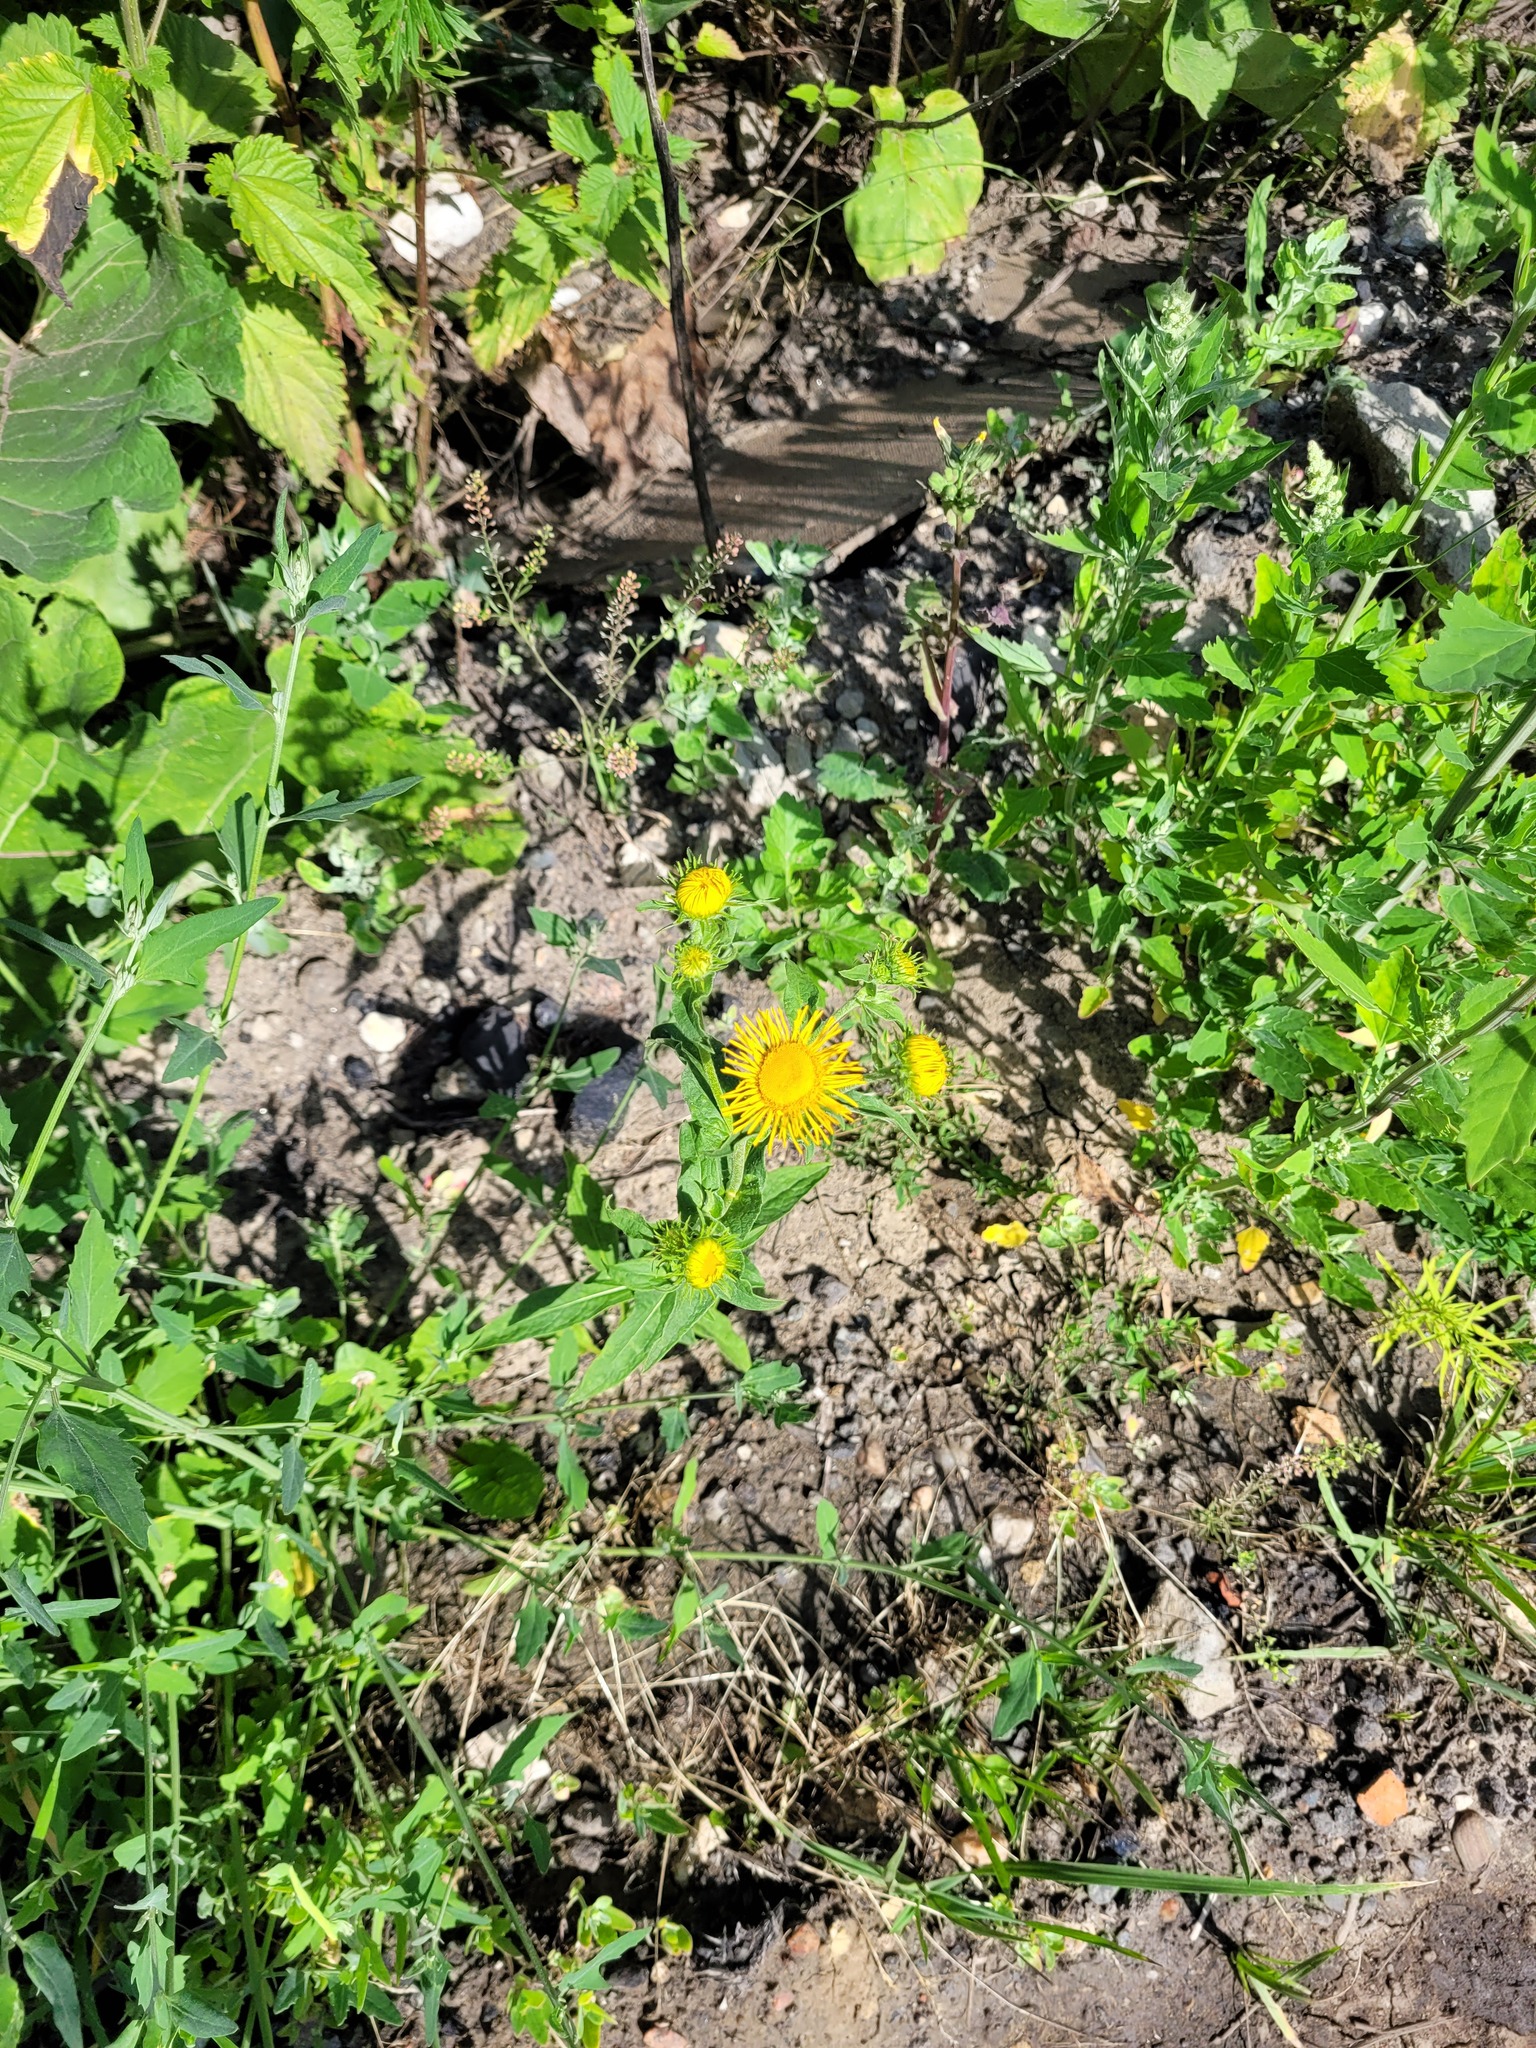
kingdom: Plantae
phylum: Tracheophyta
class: Magnoliopsida
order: Asterales
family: Asteraceae
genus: Pentanema
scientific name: Pentanema britannicum
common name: British elecampane
